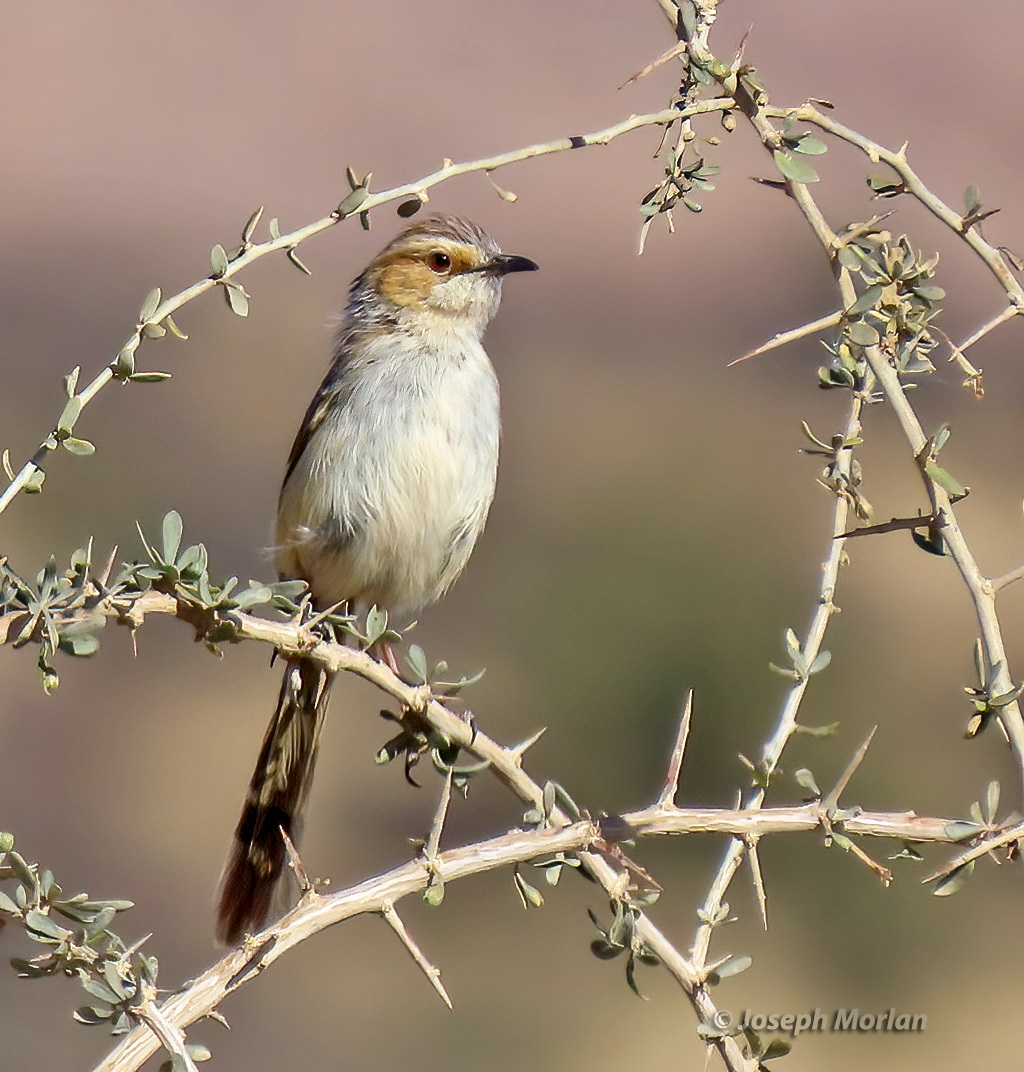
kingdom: Animalia
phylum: Chordata
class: Aves
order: Passeriformes
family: Cisticolidae
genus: Malcorus
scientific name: Malcorus pectoralis
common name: Rufous-eared warbler
